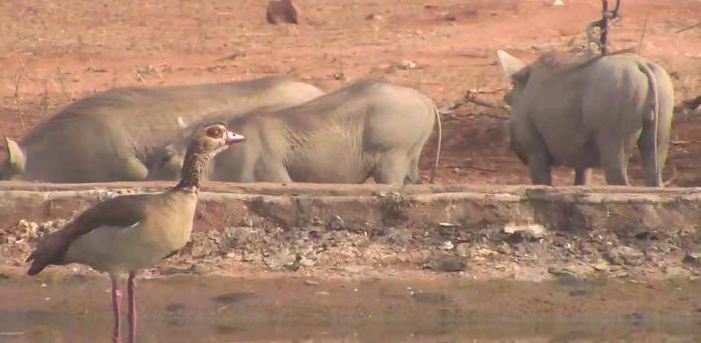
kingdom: Animalia
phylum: Chordata
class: Aves
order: Anseriformes
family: Anatidae
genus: Alopochen
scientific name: Alopochen aegyptiaca
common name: Egyptian goose
